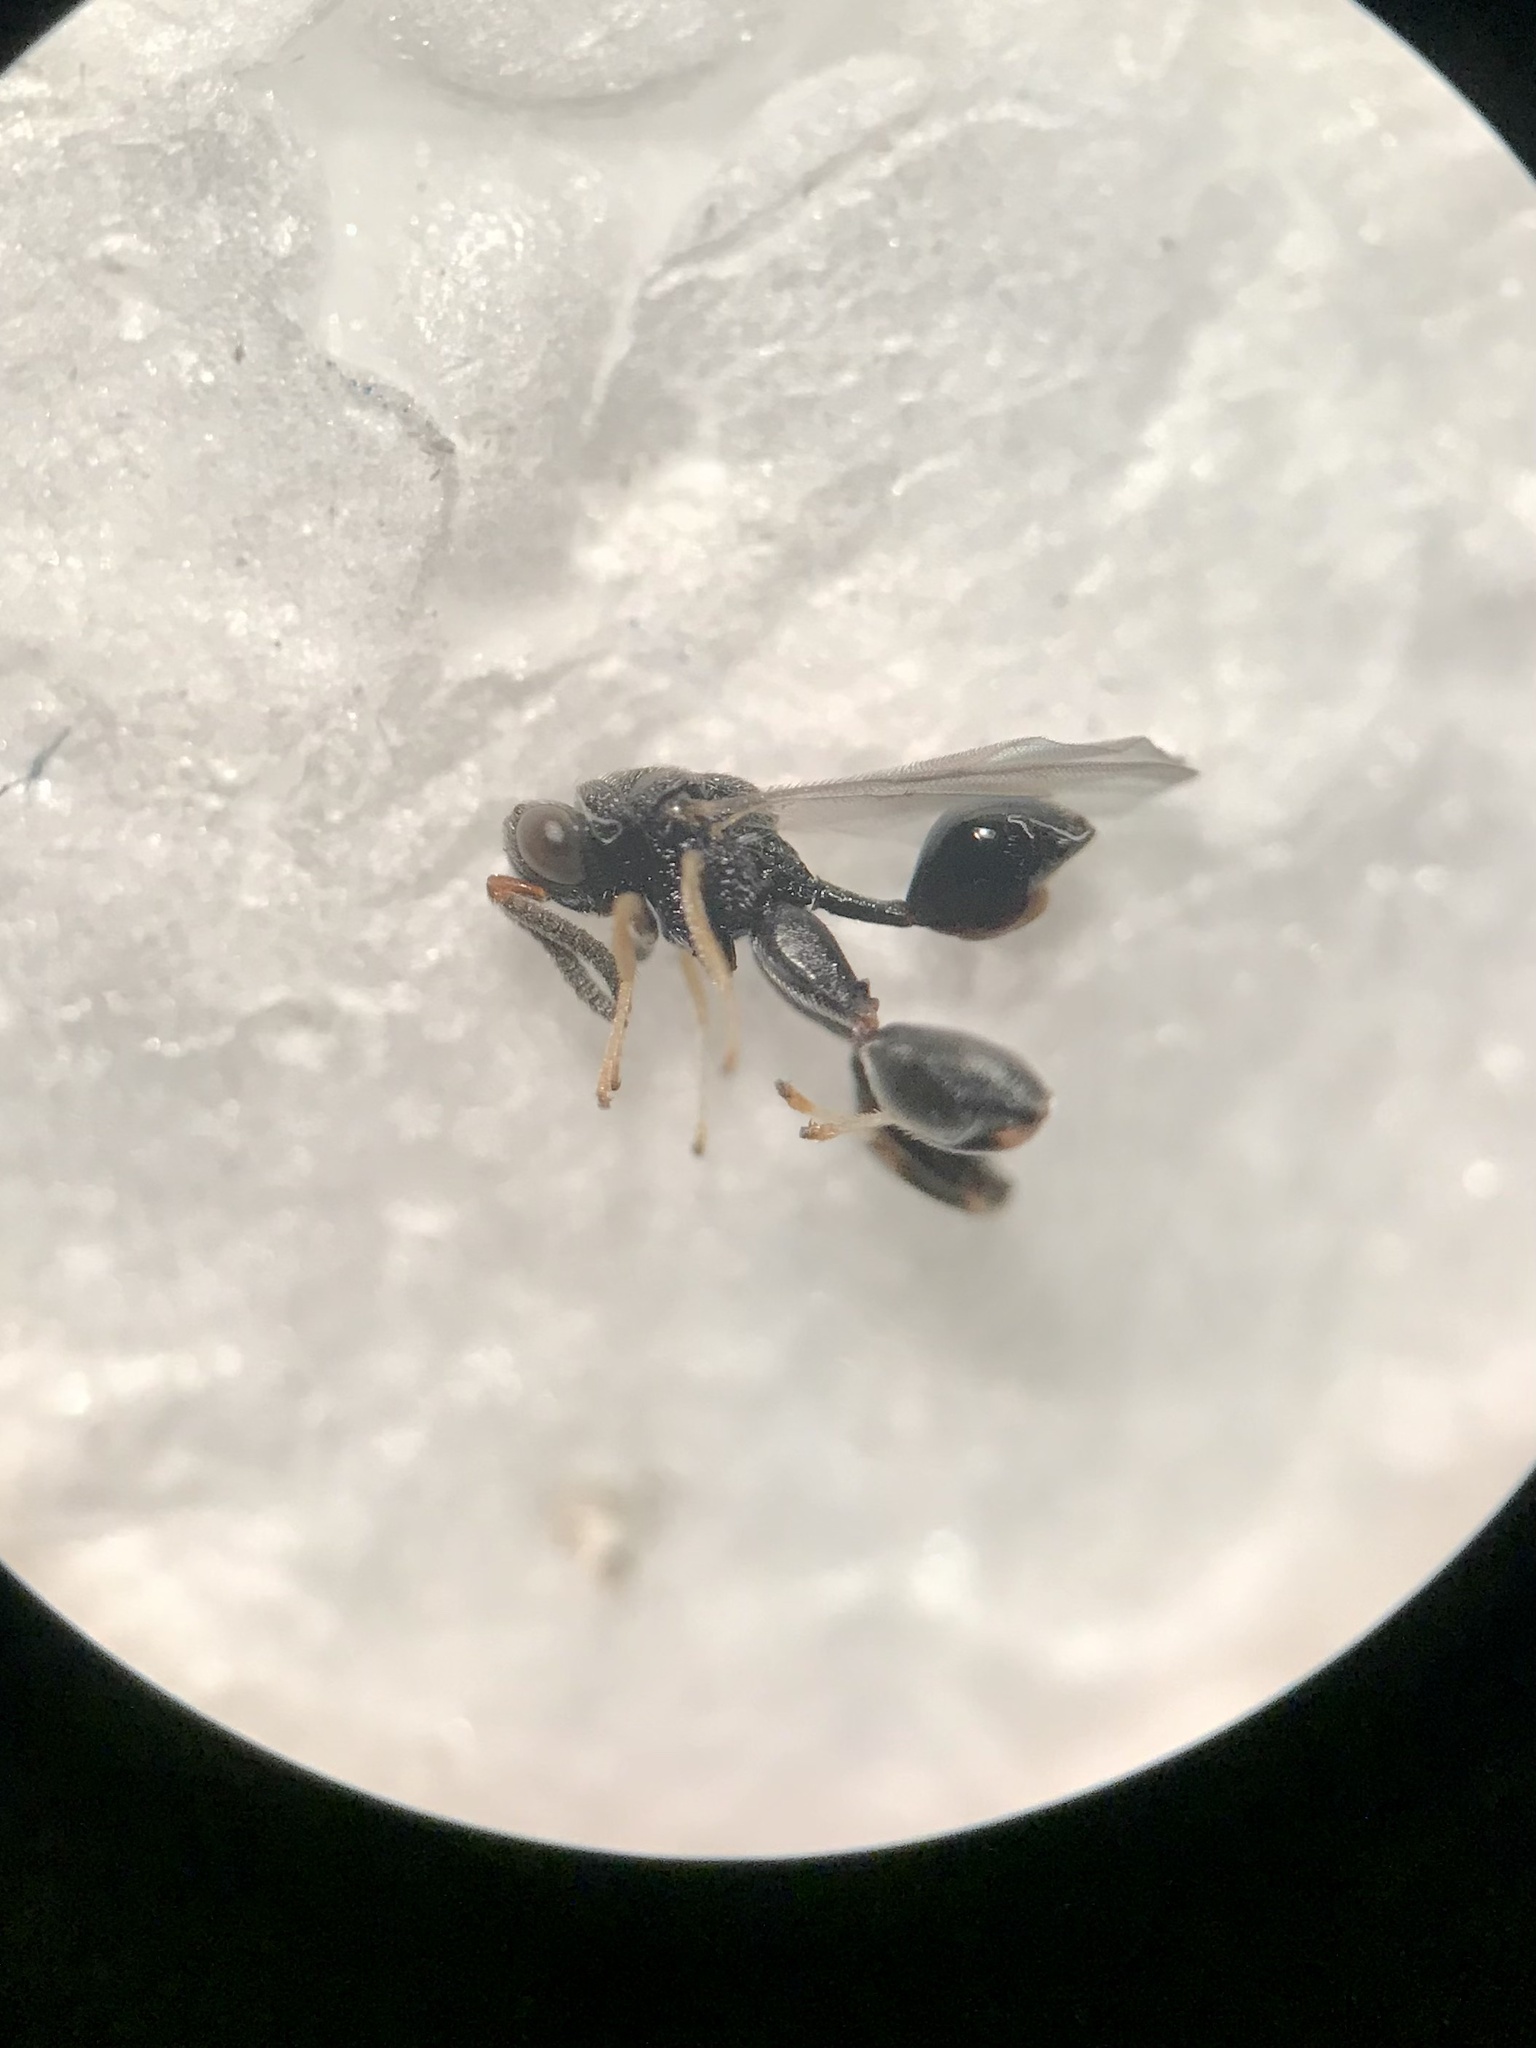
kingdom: Animalia
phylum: Arthropoda
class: Insecta
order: Hymenoptera
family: Chalcididae
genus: Conura
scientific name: Conura
